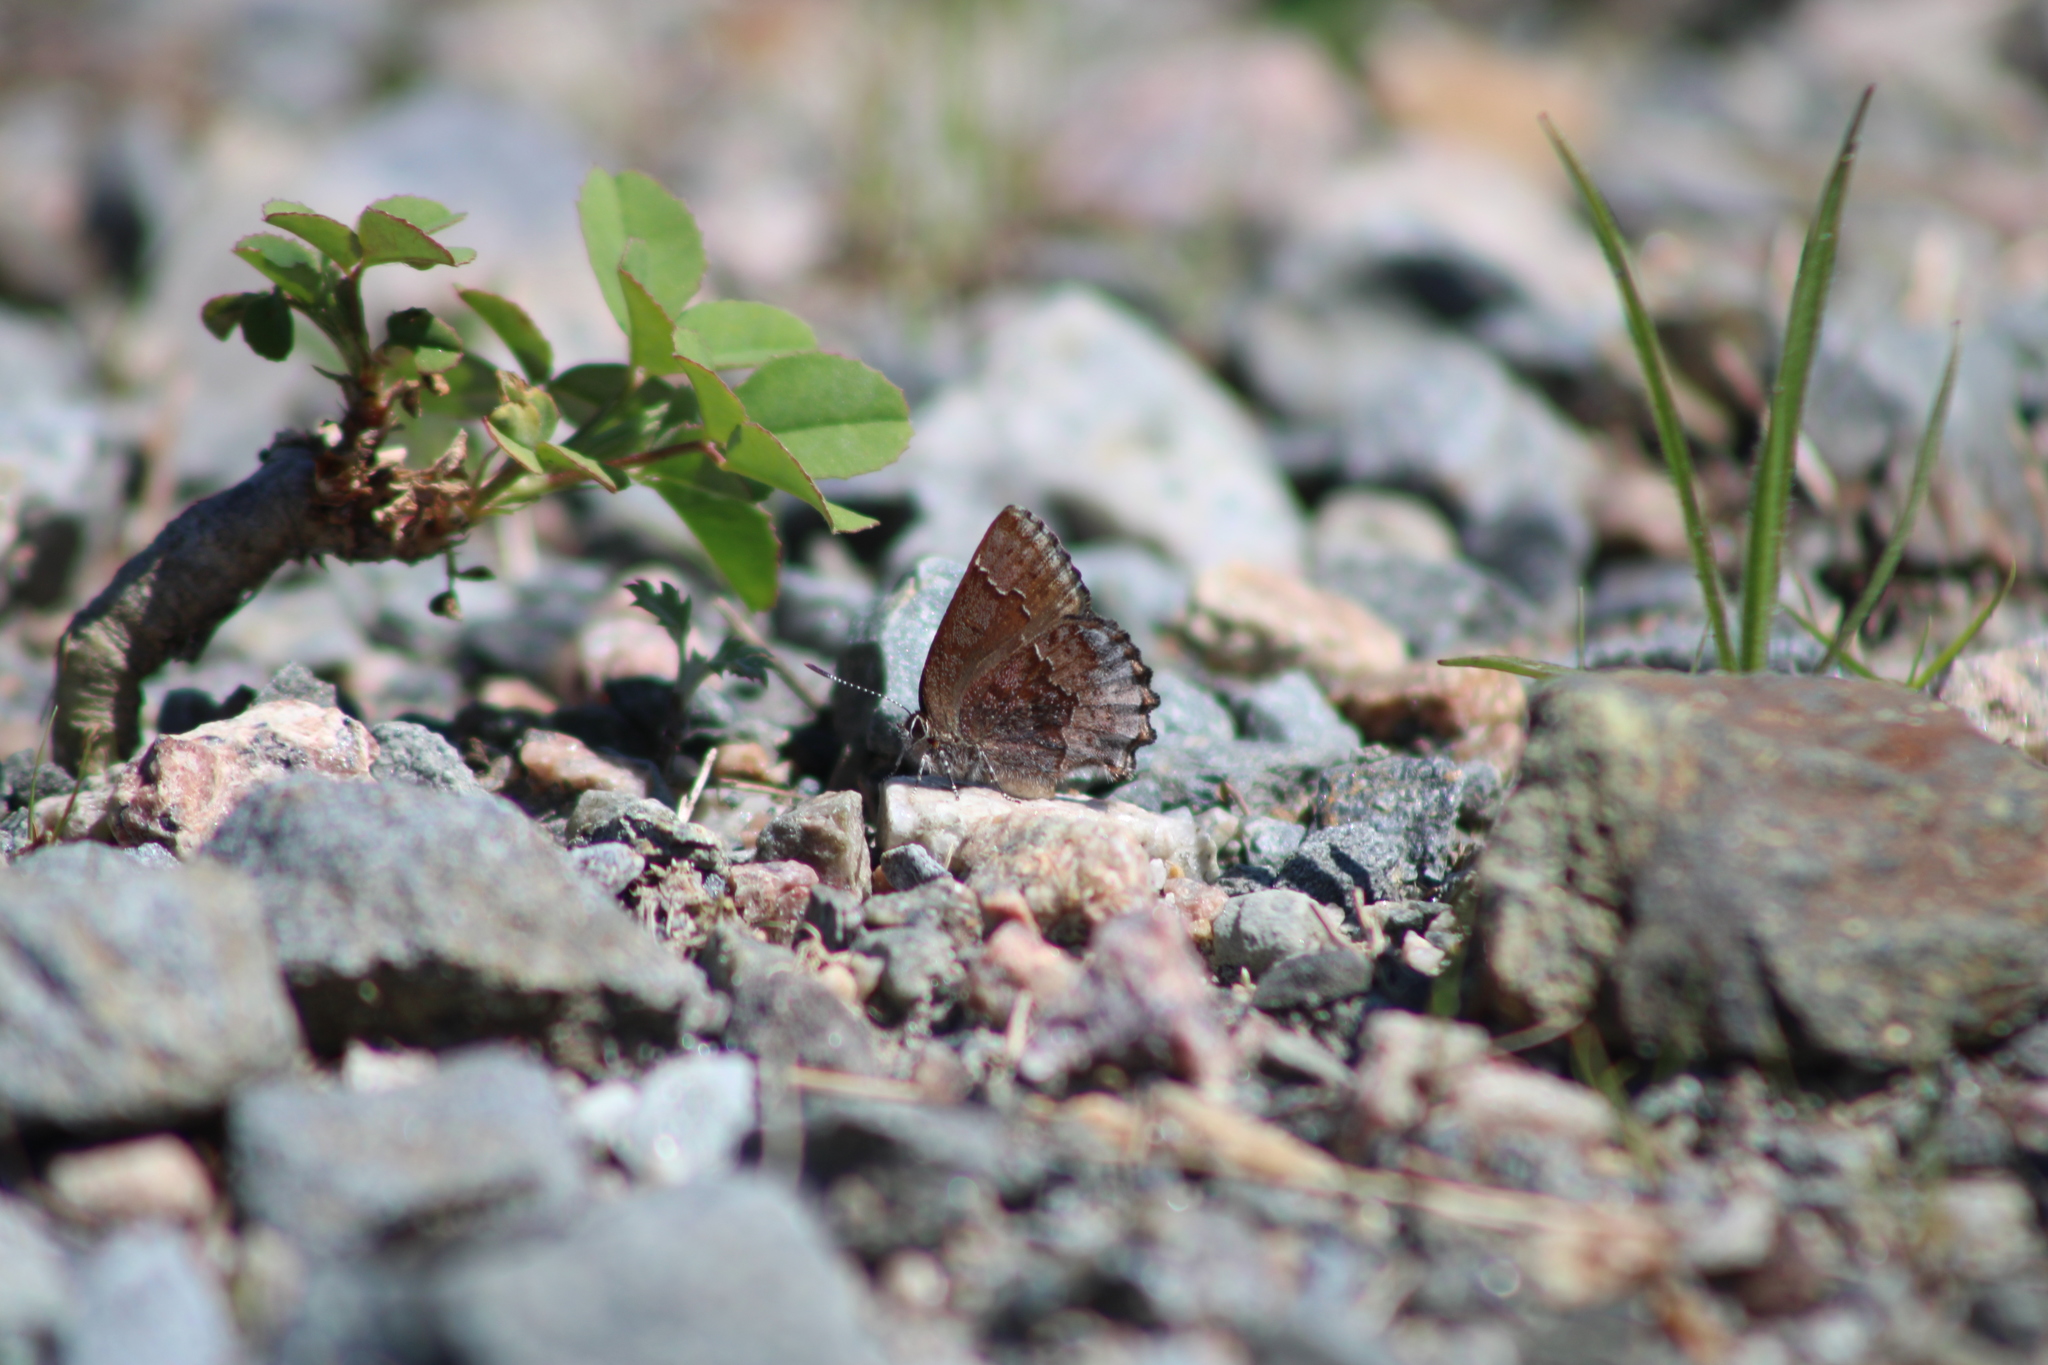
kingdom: Animalia
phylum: Arthropoda
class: Insecta
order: Lepidoptera
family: Lycaenidae
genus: Callophrys
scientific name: Callophrys polios
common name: Hoary elfin
